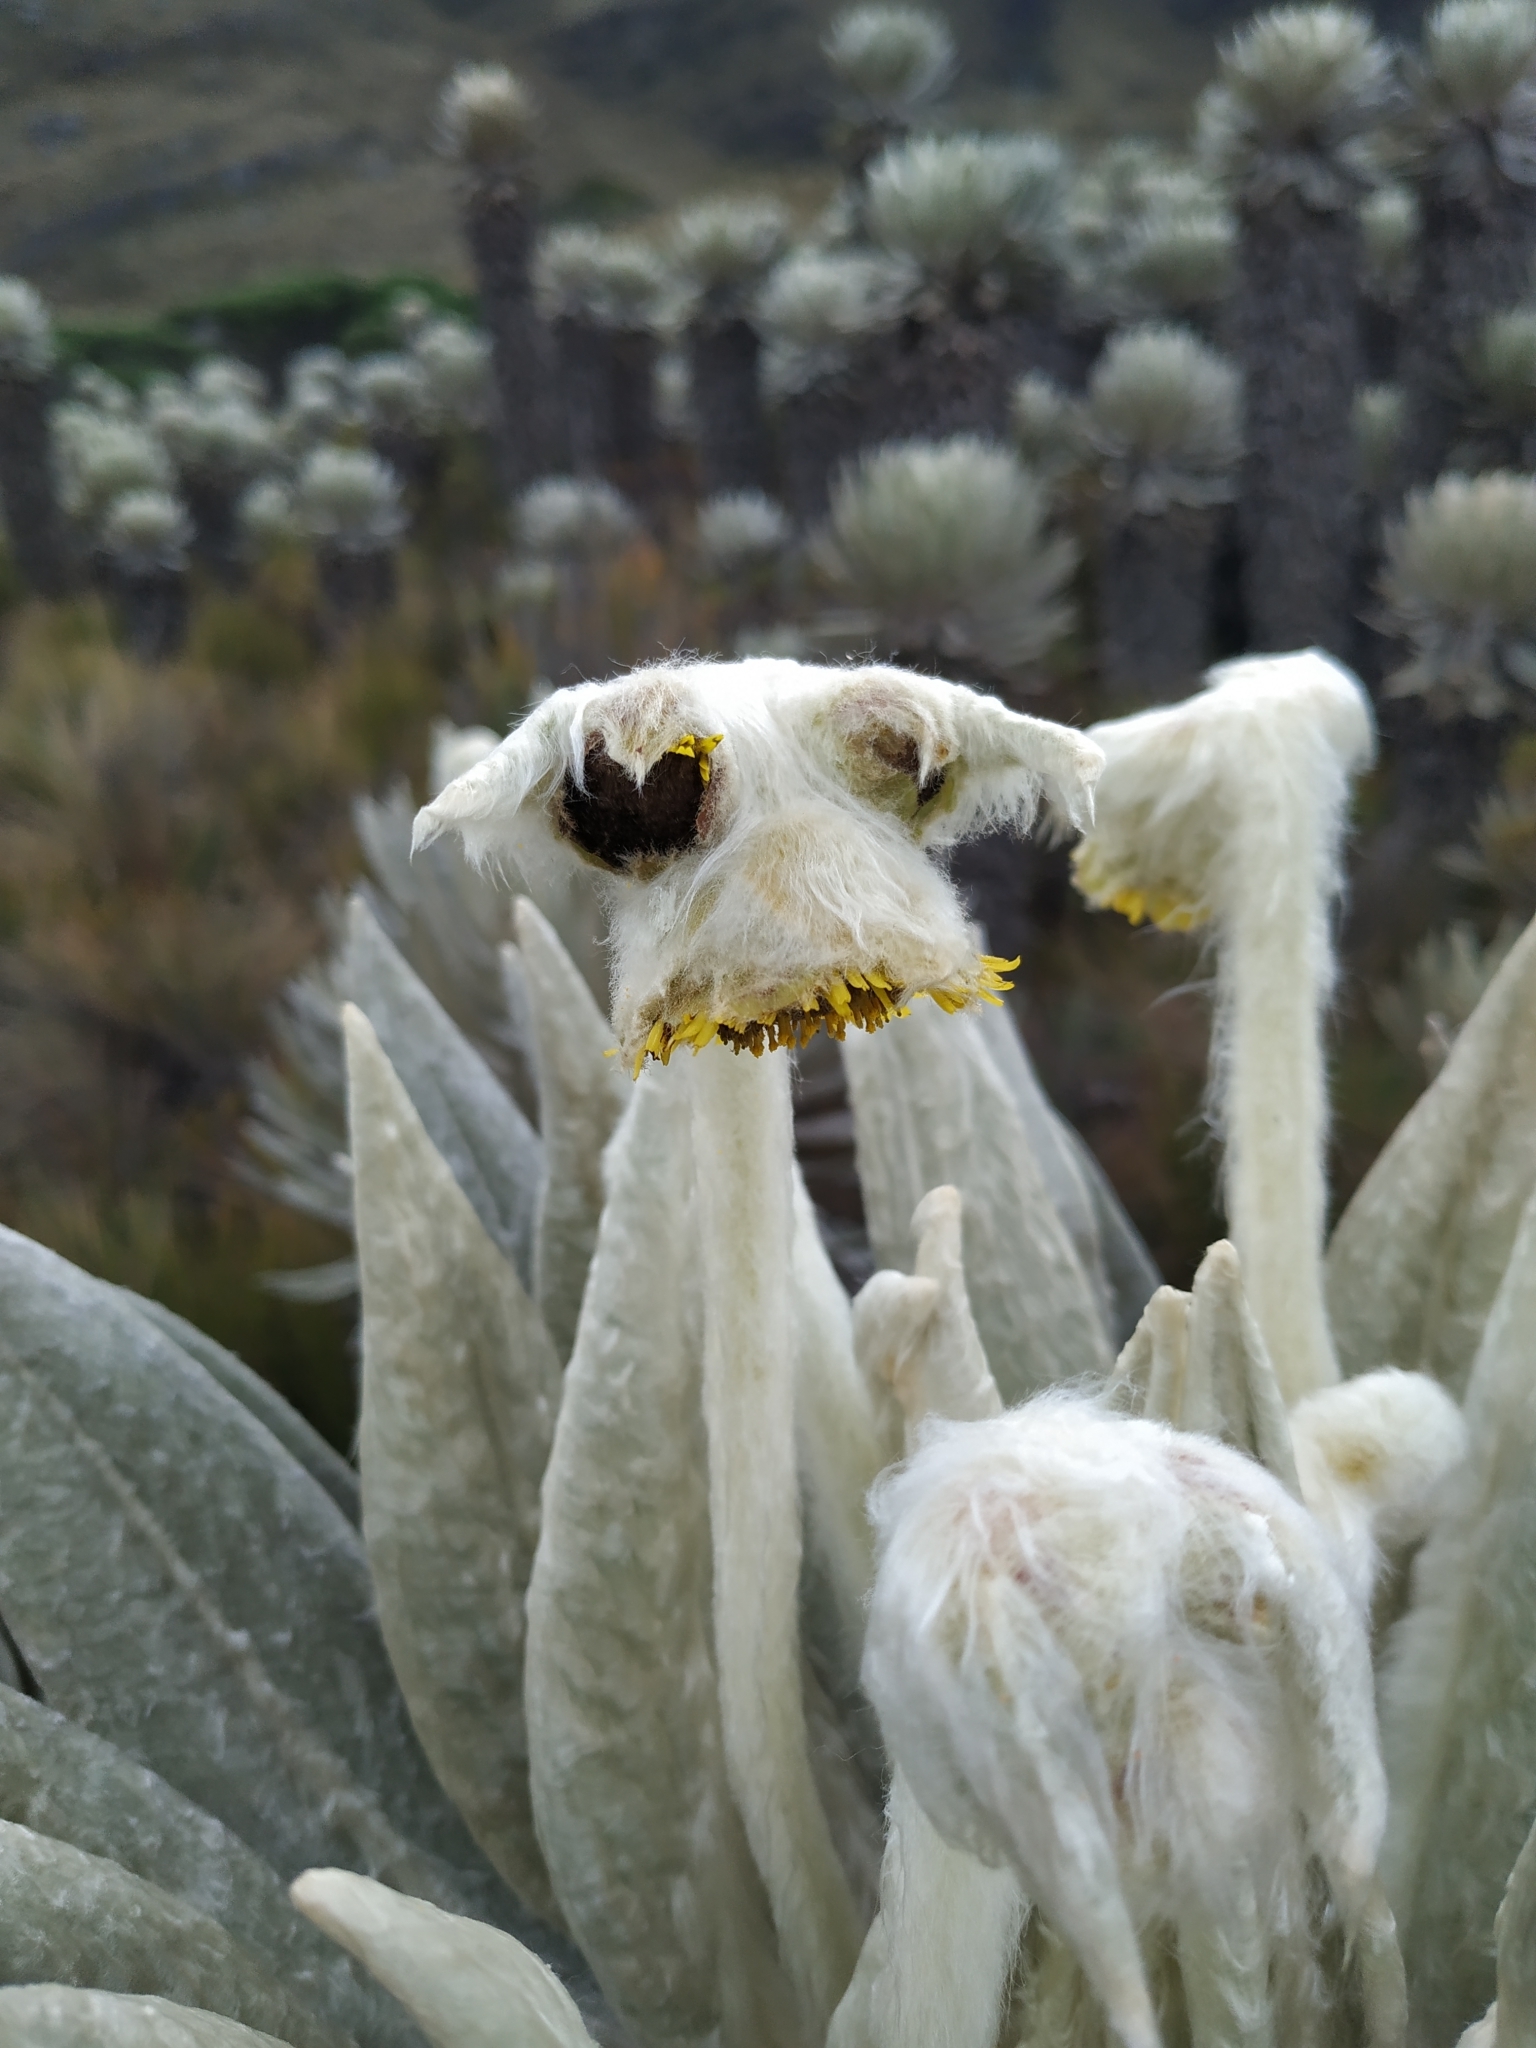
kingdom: Plantae
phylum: Tracheophyta
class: Magnoliopsida
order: Asterales
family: Asteraceae
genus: Espeletia
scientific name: Espeletia incana
